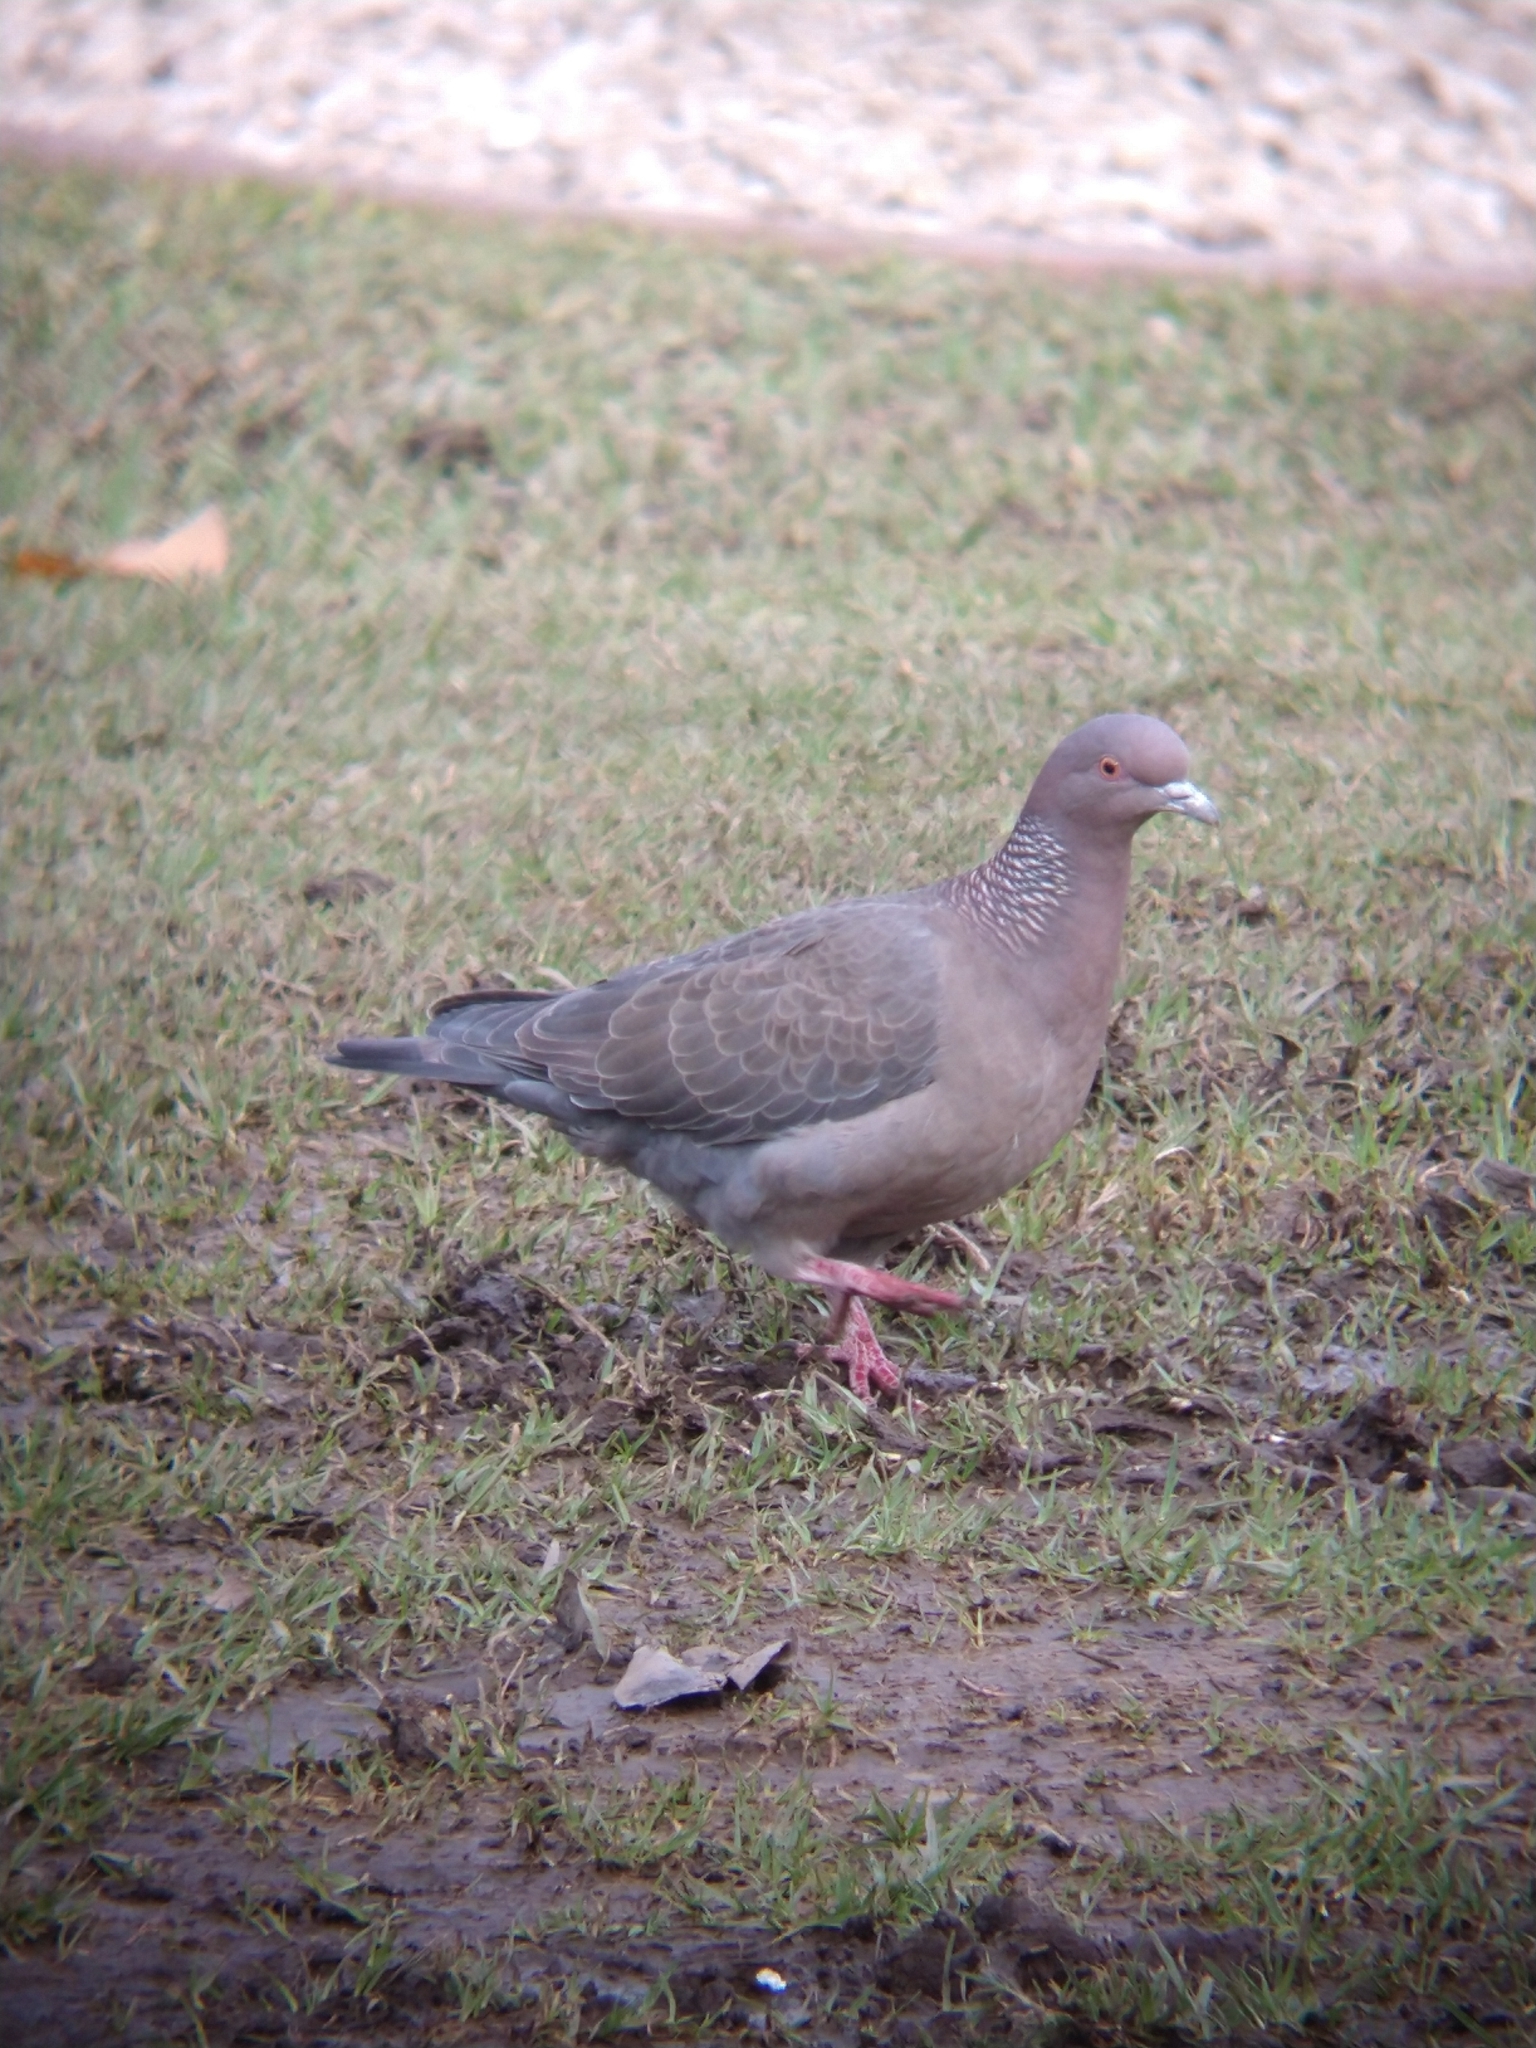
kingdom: Animalia
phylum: Chordata
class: Aves
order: Columbiformes
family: Columbidae
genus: Patagioenas
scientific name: Patagioenas picazuro
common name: Picazuro pigeon
